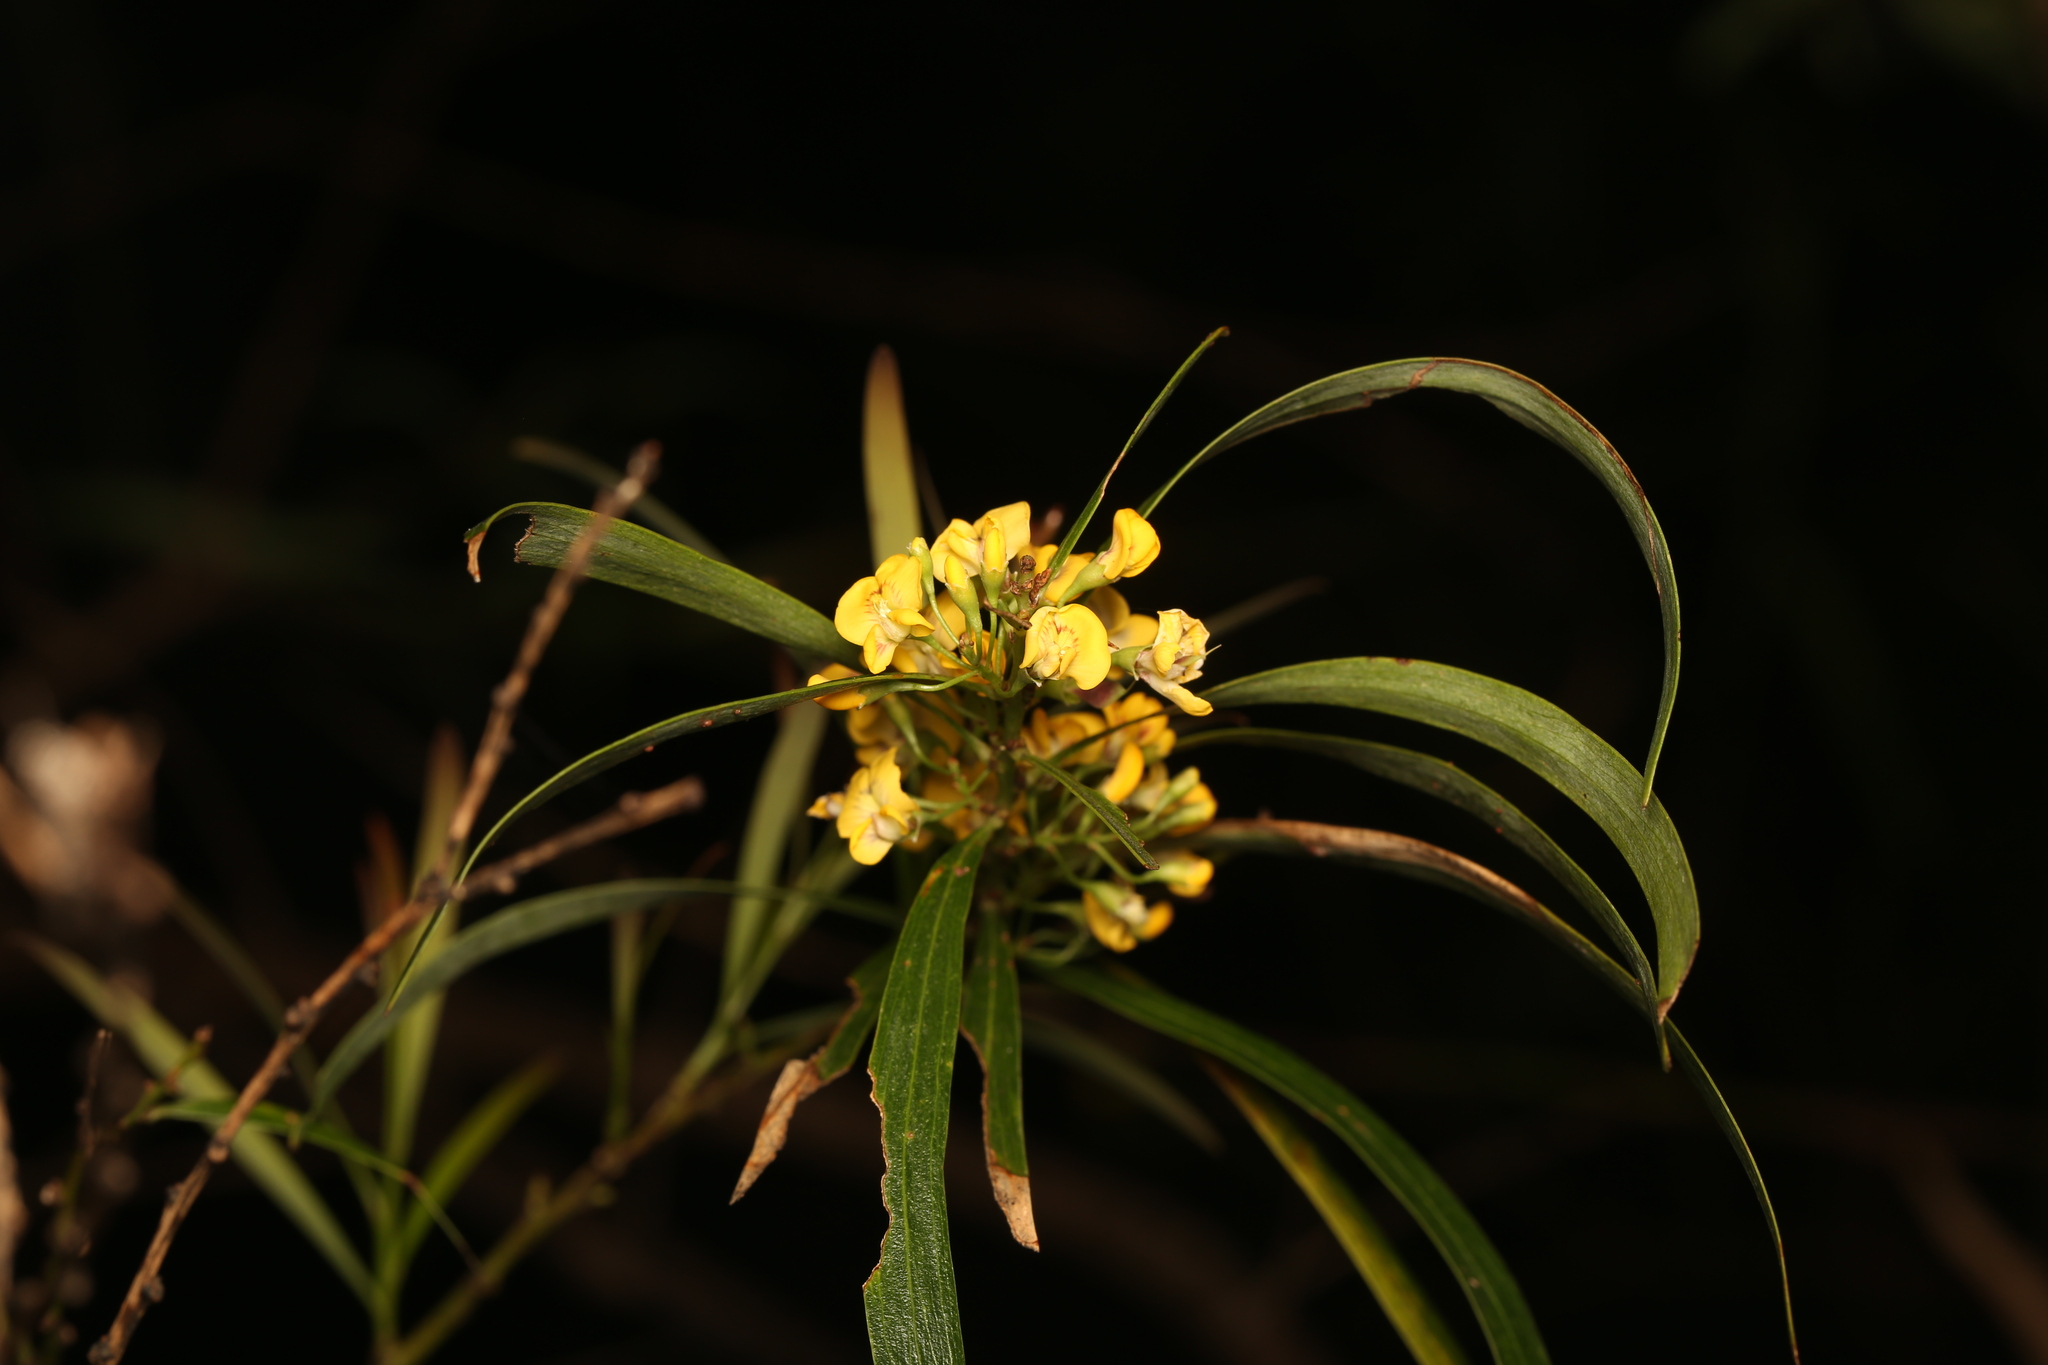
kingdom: Plantae
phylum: Tracheophyta
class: Magnoliopsida
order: Fabales
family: Fabaceae
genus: Daviesia
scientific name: Daviesia arborea
